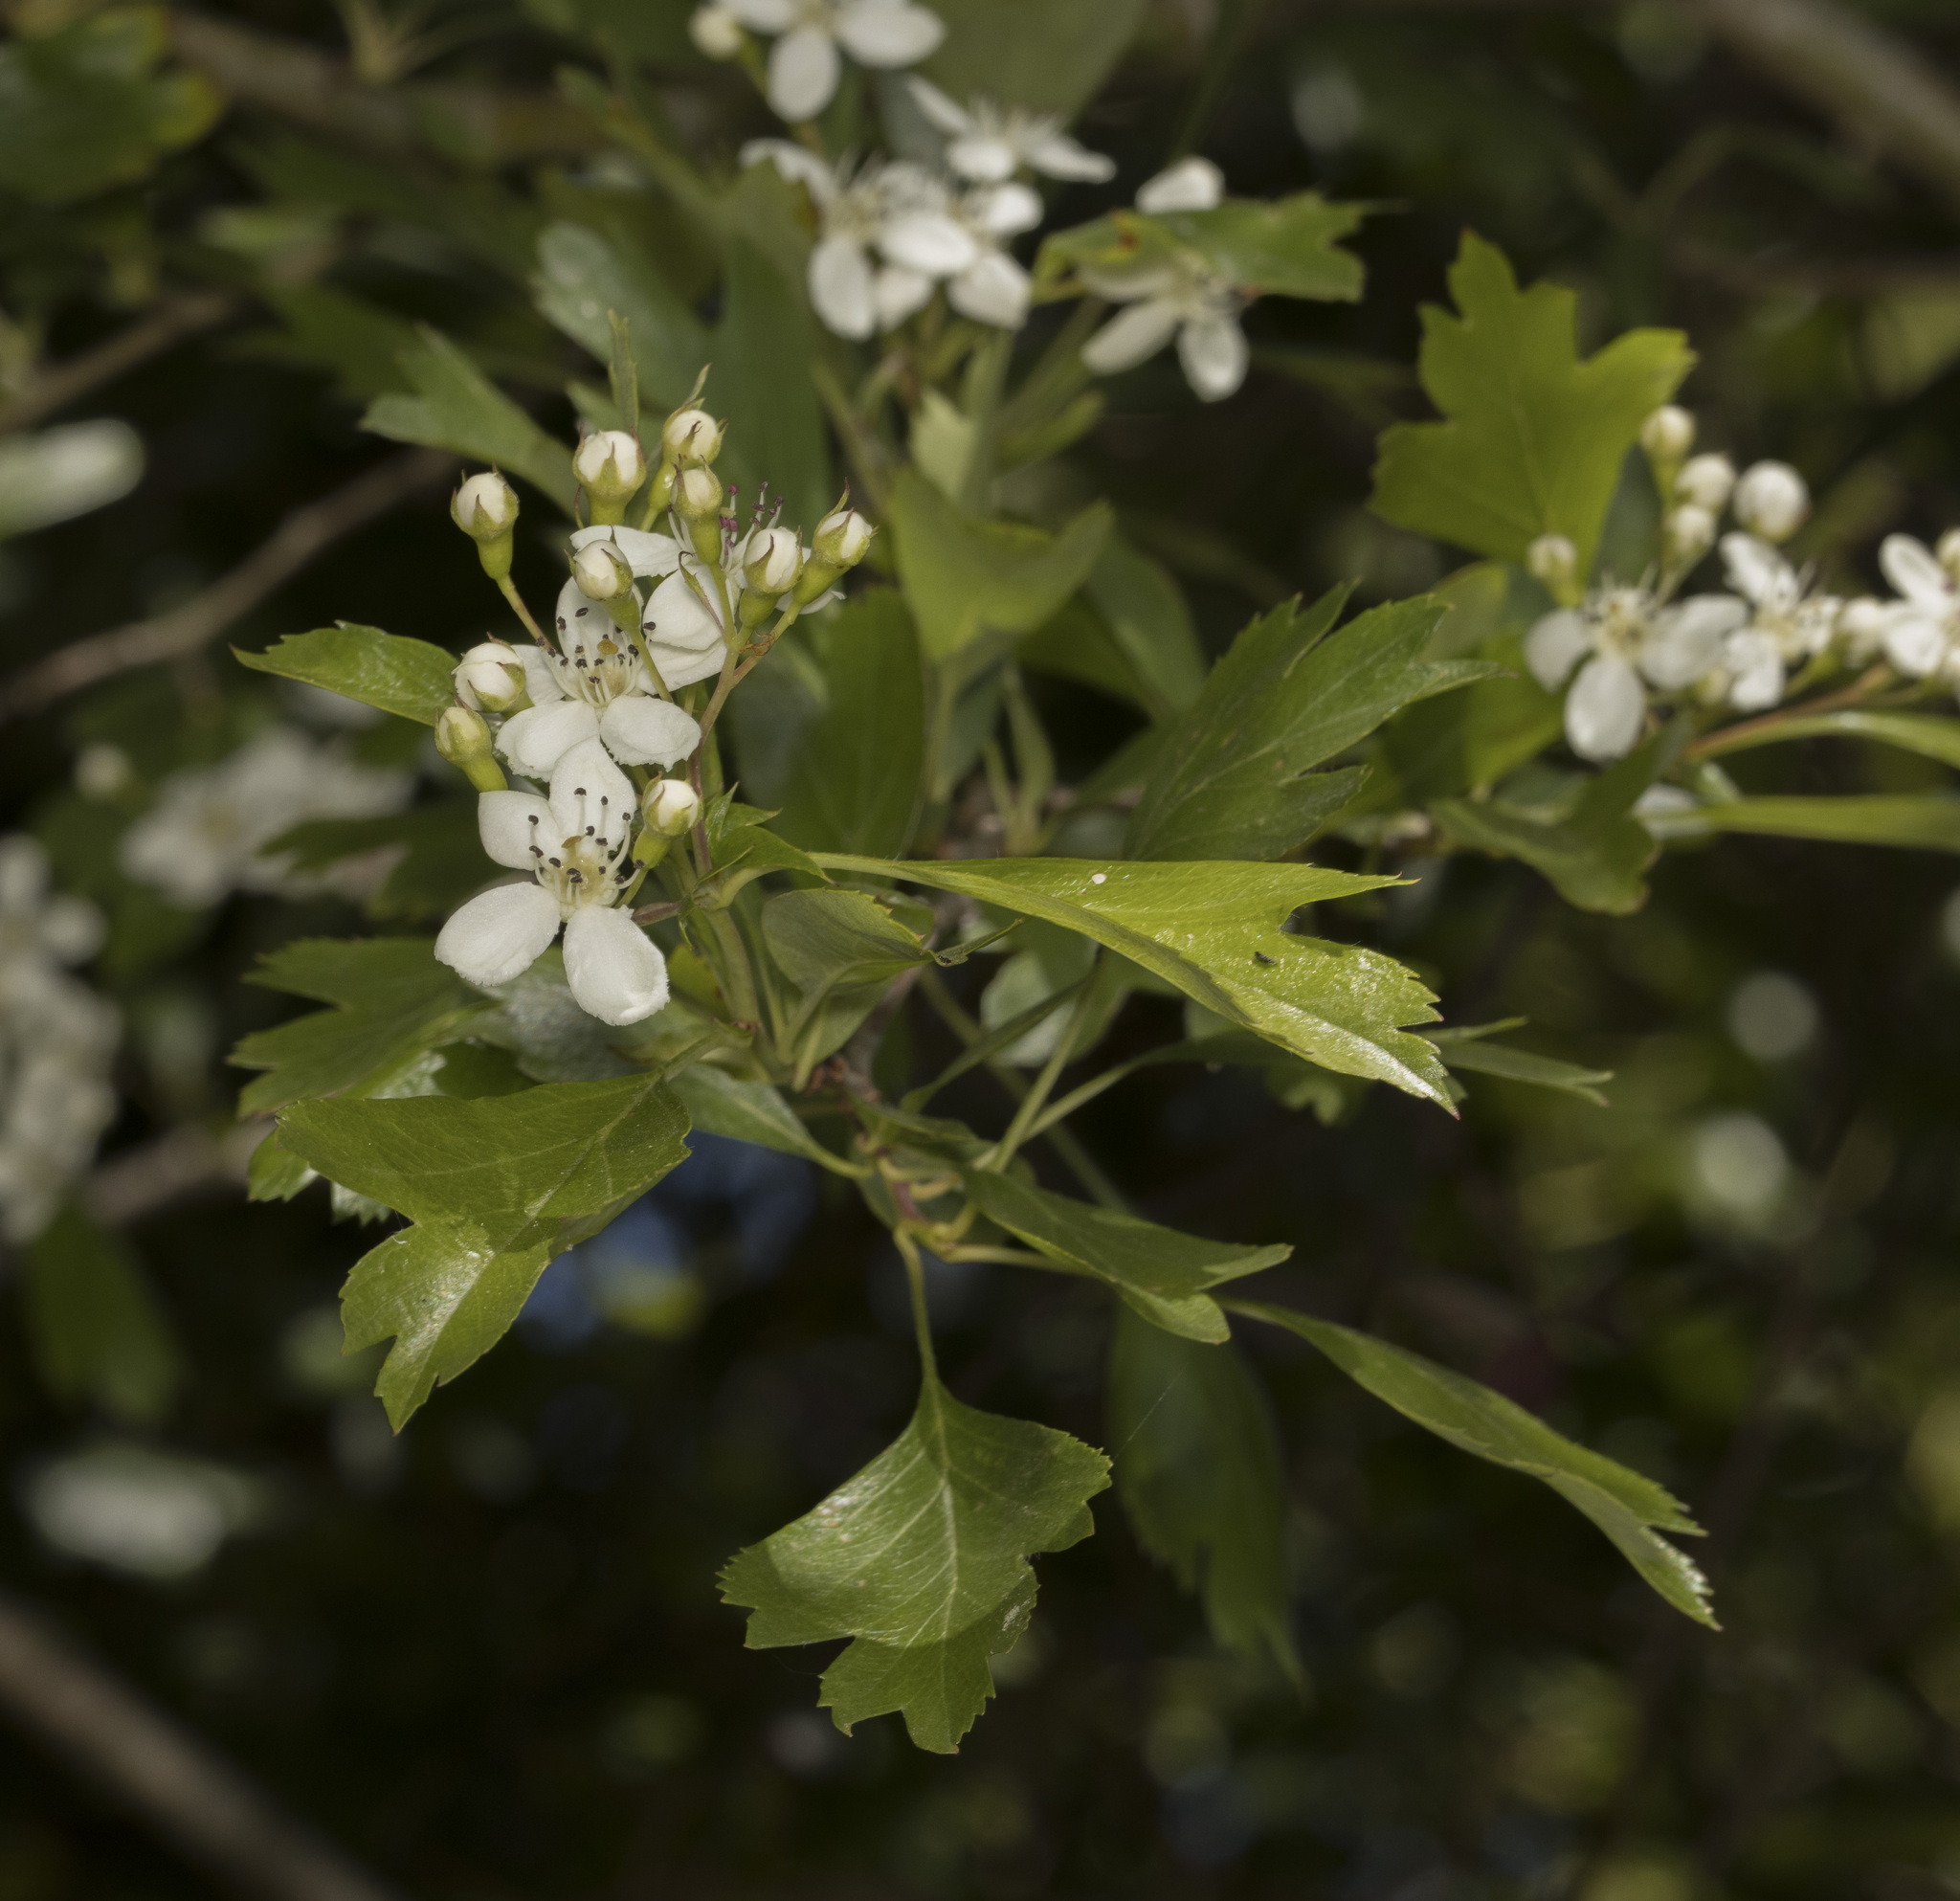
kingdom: Plantae
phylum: Tracheophyta
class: Magnoliopsida
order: Rosales
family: Rosaceae
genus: Crataegus
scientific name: Crataegus monogyna
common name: Hawthorn
